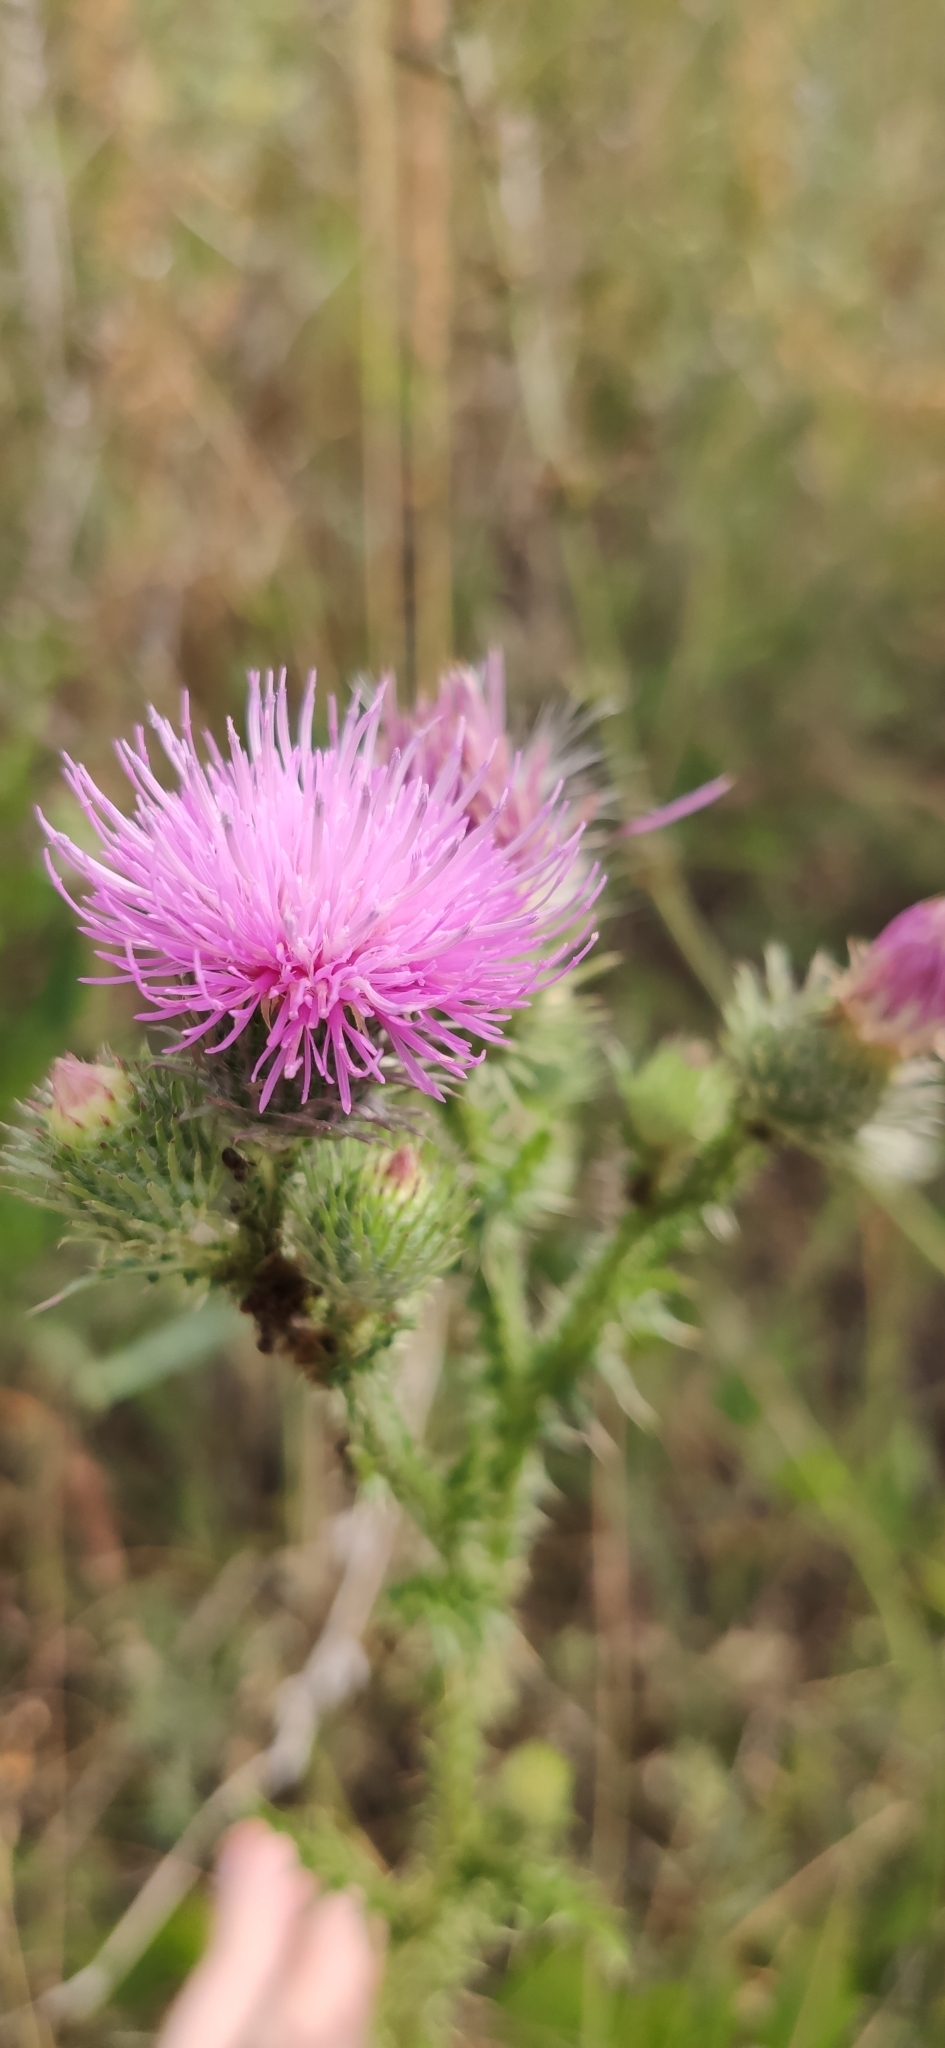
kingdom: Plantae
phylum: Tracheophyta
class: Magnoliopsida
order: Asterales
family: Asteraceae
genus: Carduus
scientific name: Carduus acanthoides
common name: Plumeless thistle
